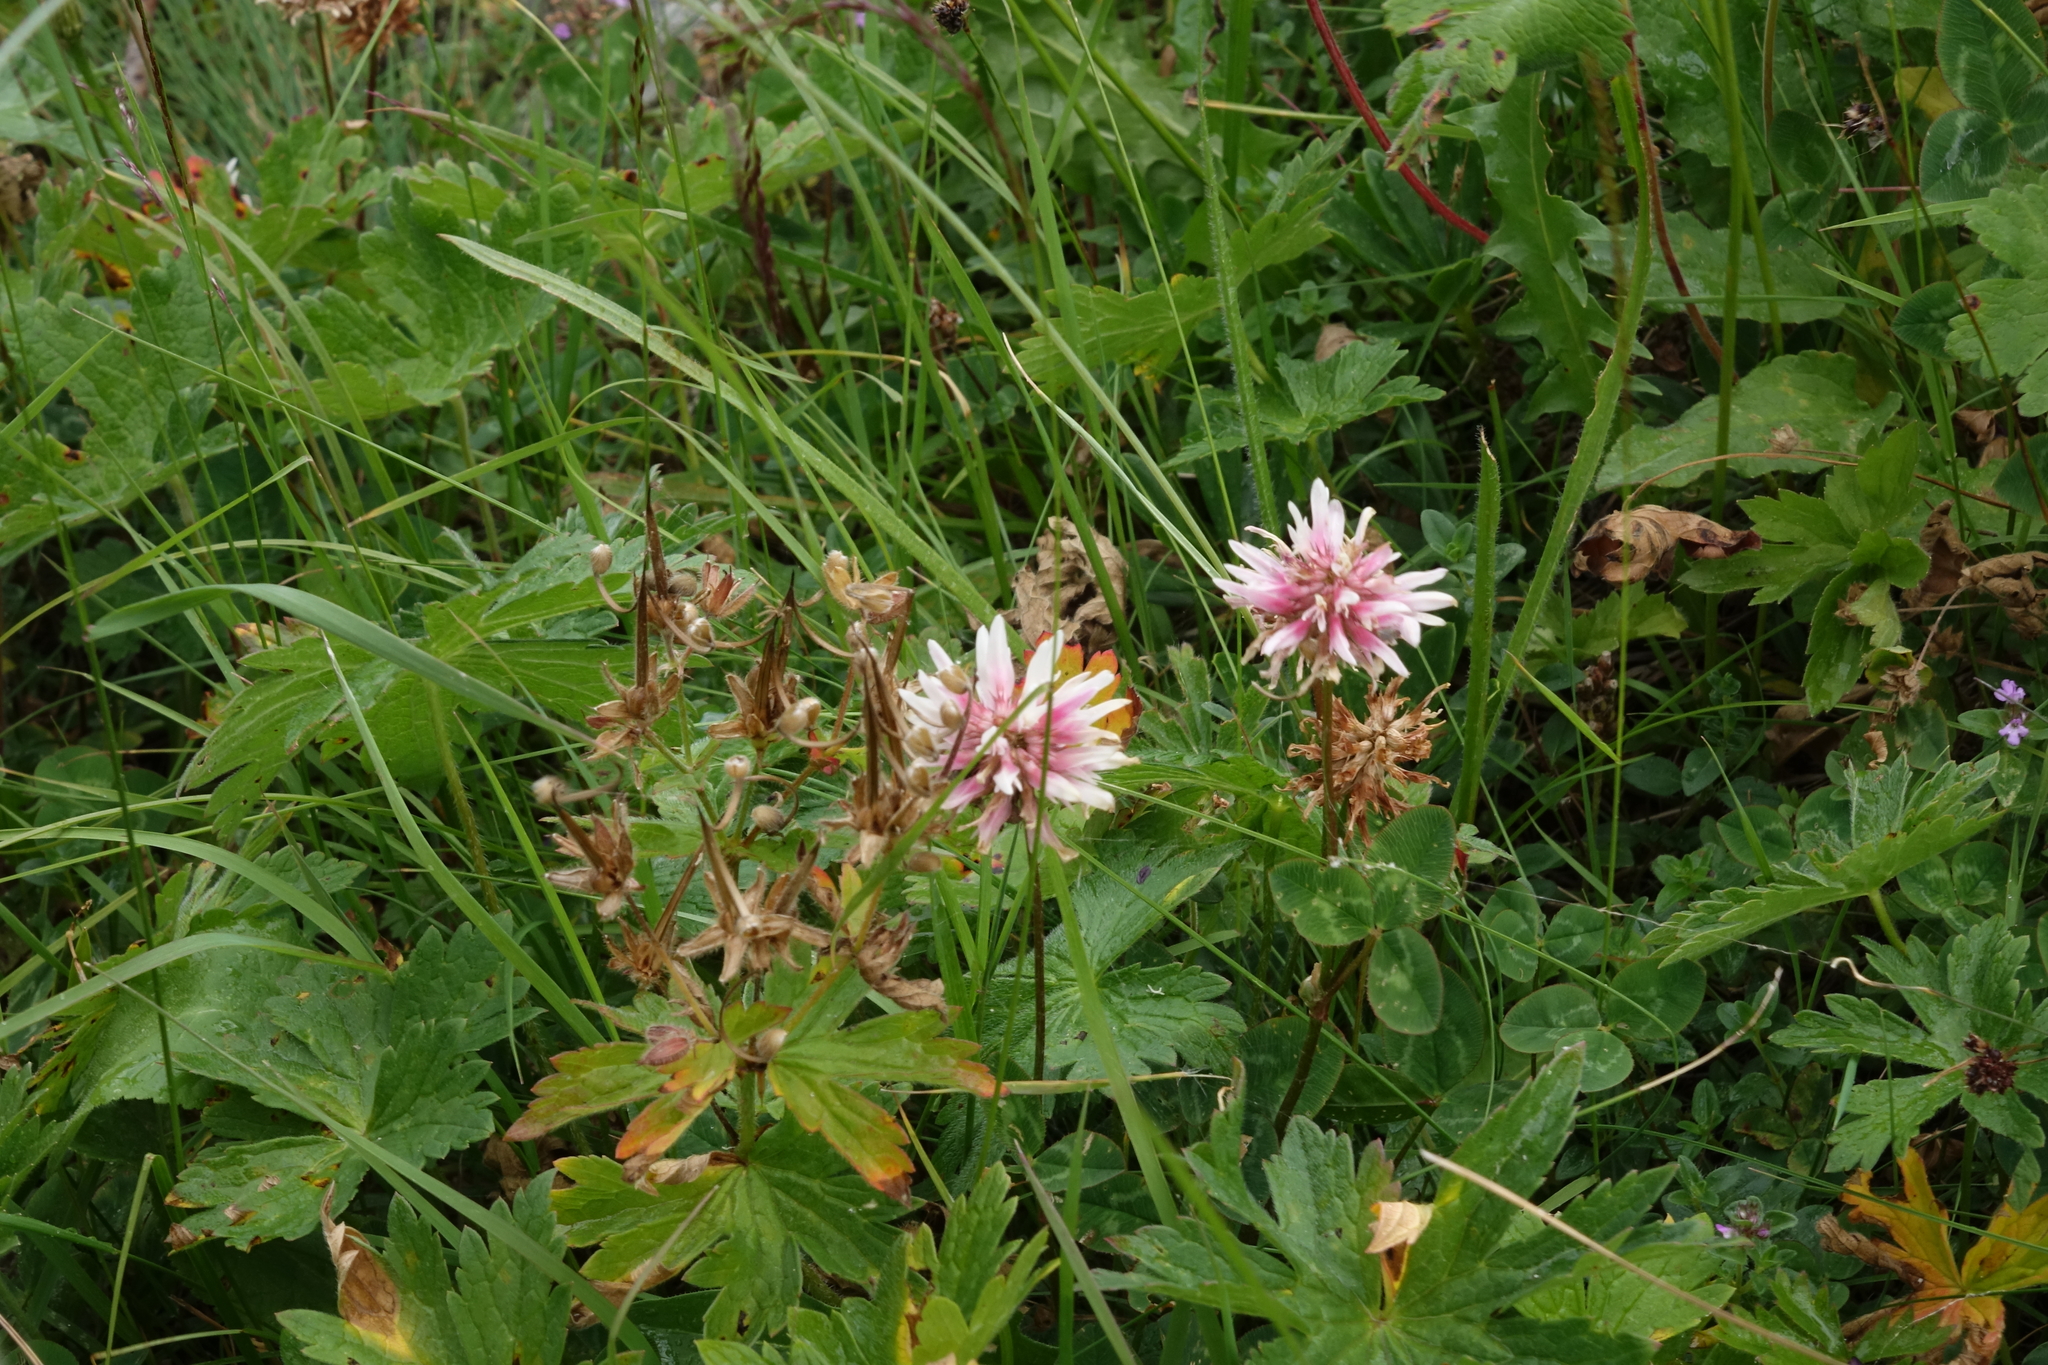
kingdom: Plantae
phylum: Tracheophyta
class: Magnoliopsida
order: Fabales
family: Fabaceae
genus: Trifolium
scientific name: Trifolium ambiguum
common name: Kura clover
